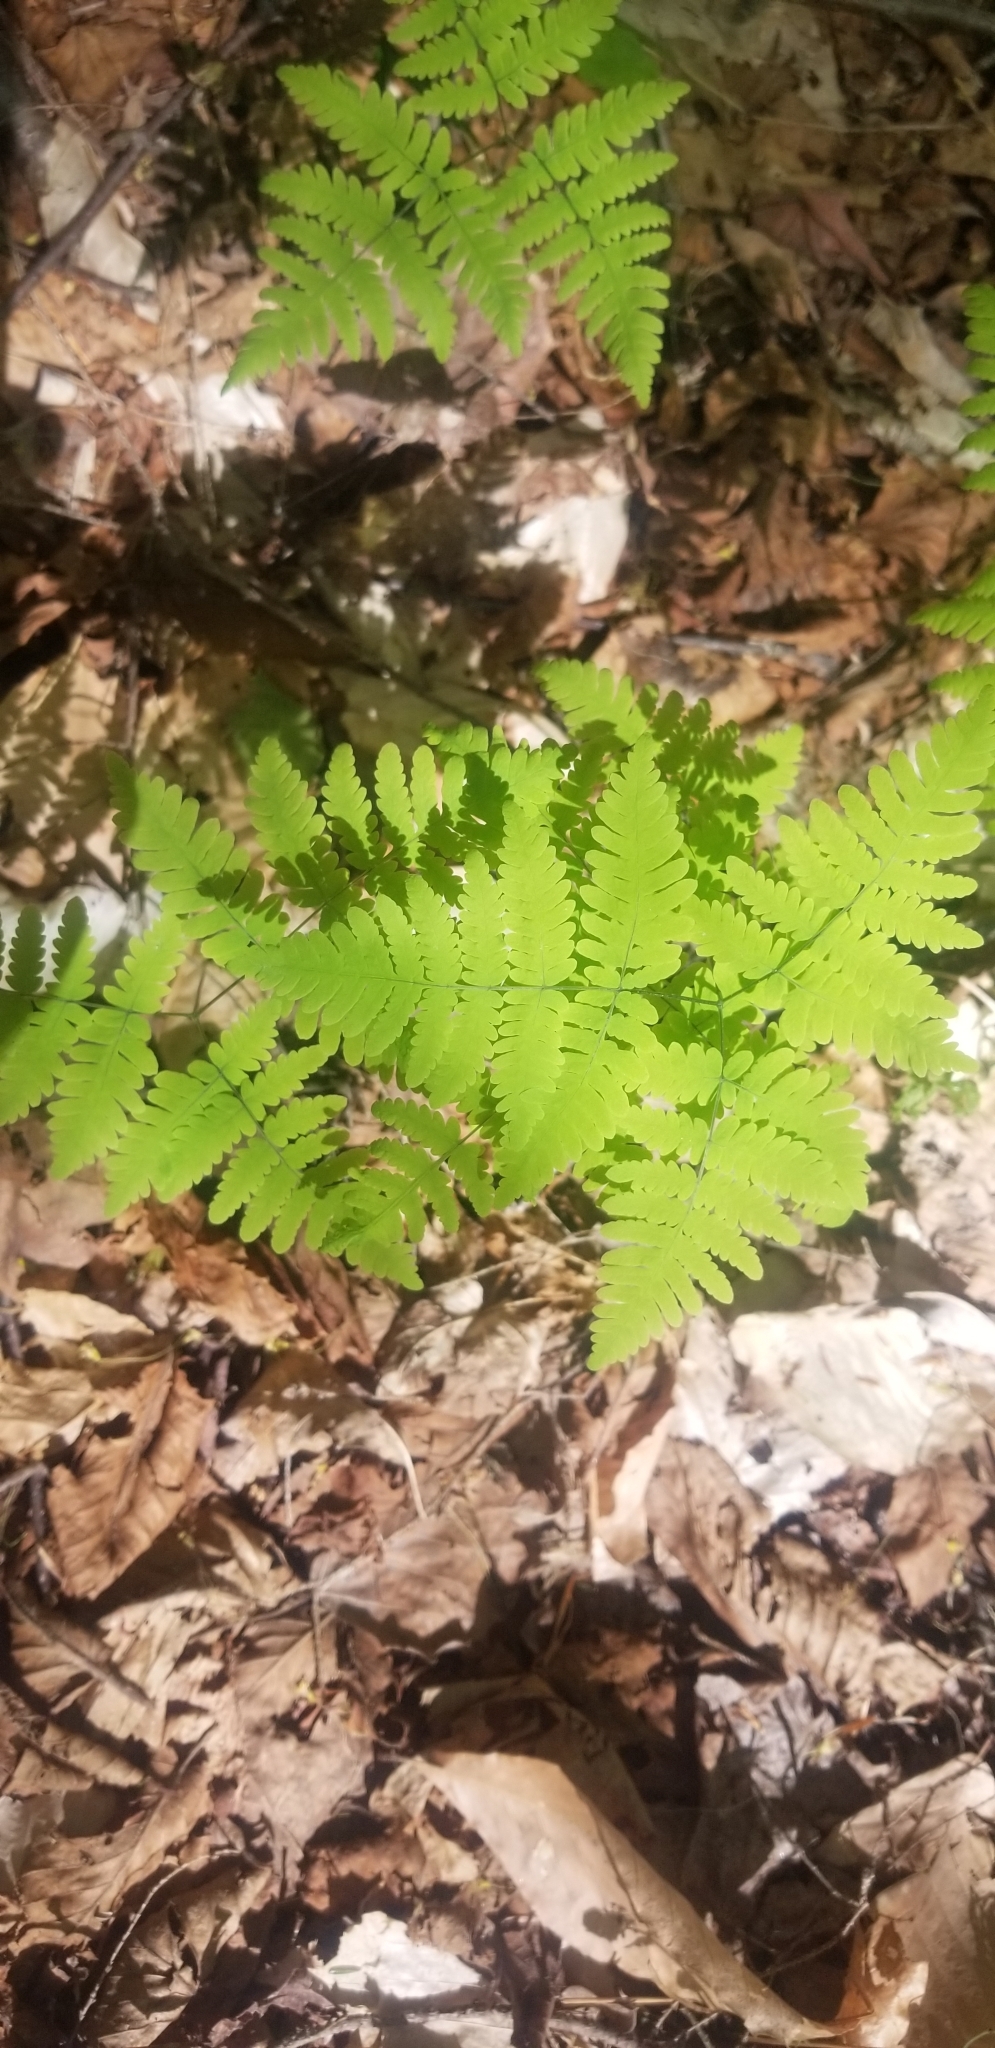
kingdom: Plantae
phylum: Tracheophyta
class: Polypodiopsida
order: Polypodiales
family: Cystopteridaceae
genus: Gymnocarpium
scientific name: Gymnocarpium dryopteris
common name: Oak fern
